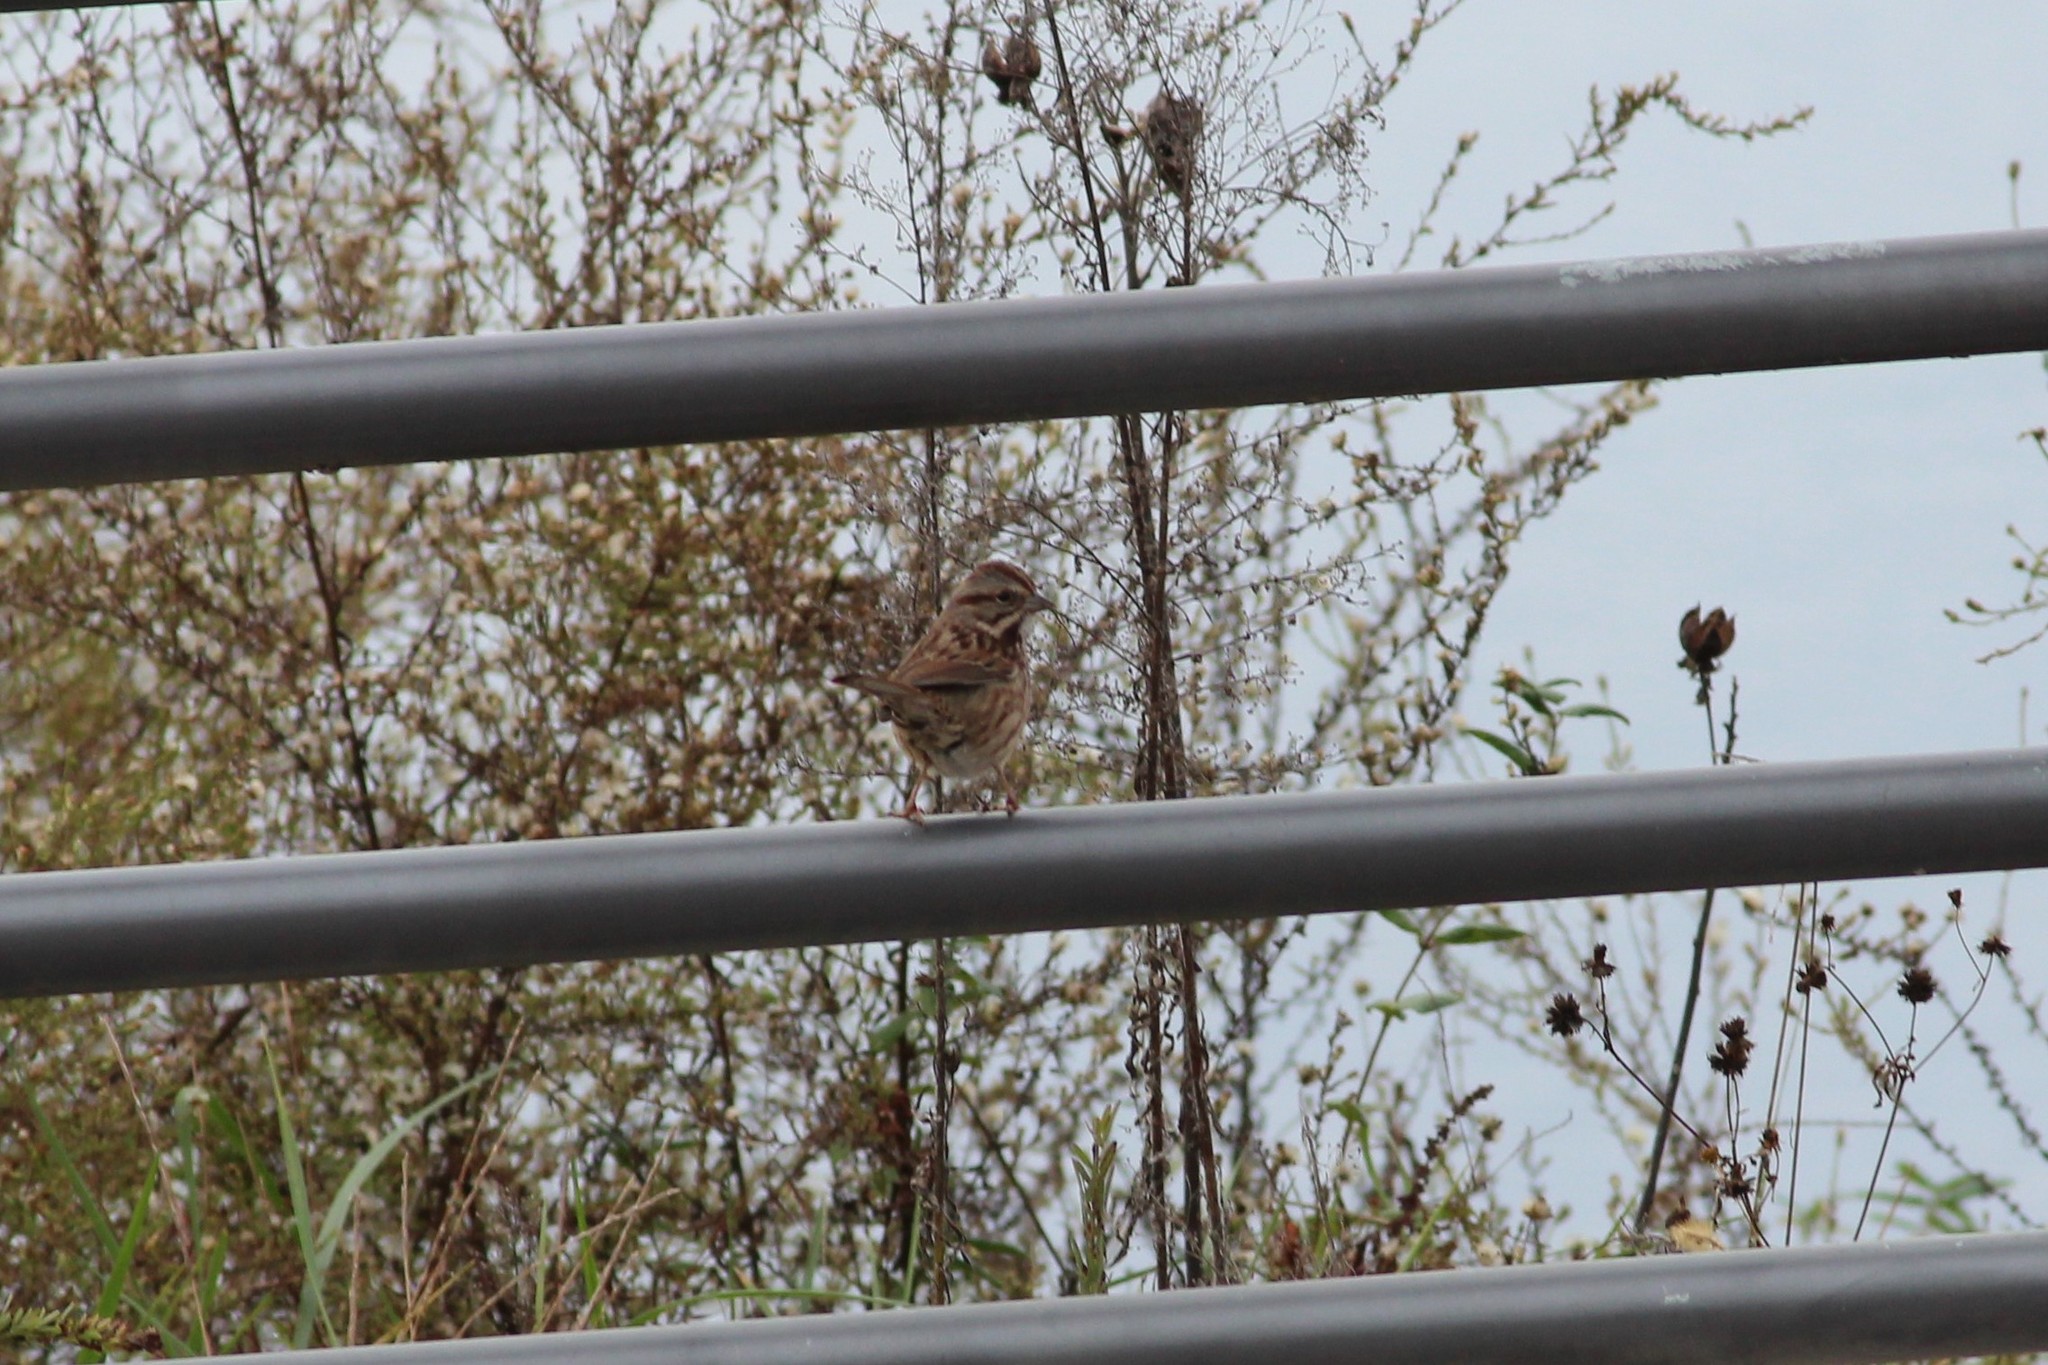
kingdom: Animalia
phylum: Chordata
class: Aves
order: Passeriformes
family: Passerellidae
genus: Melospiza
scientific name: Melospiza melodia
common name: Song sparrow
